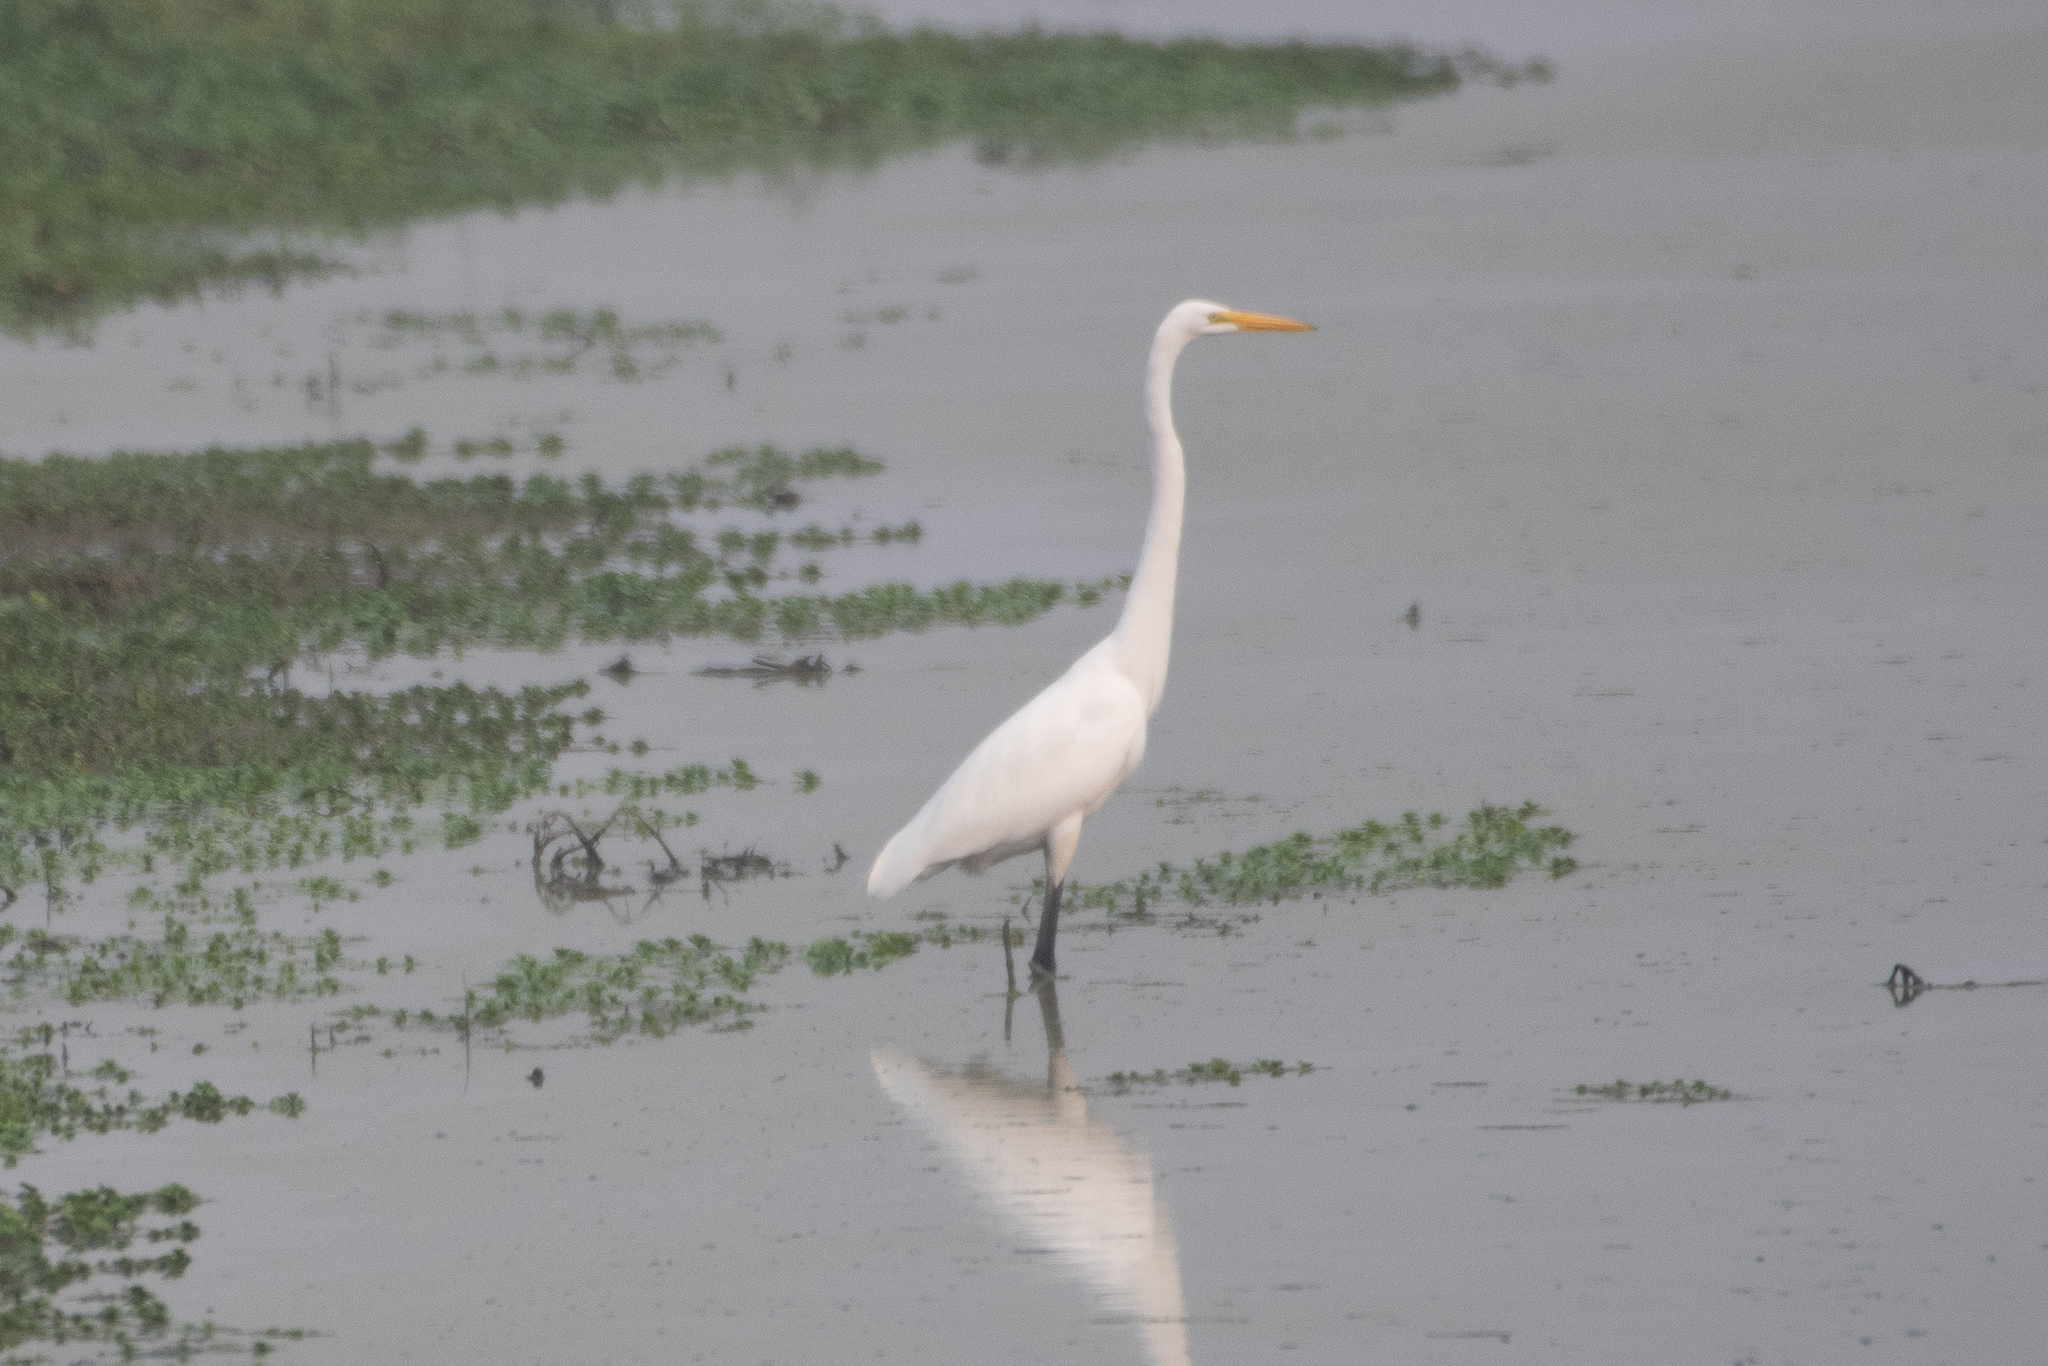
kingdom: Animalia
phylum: Chordata
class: Aves
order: Pelecaniformes
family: Ardeidae
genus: Ardea
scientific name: Ardea alba
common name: Great egret
